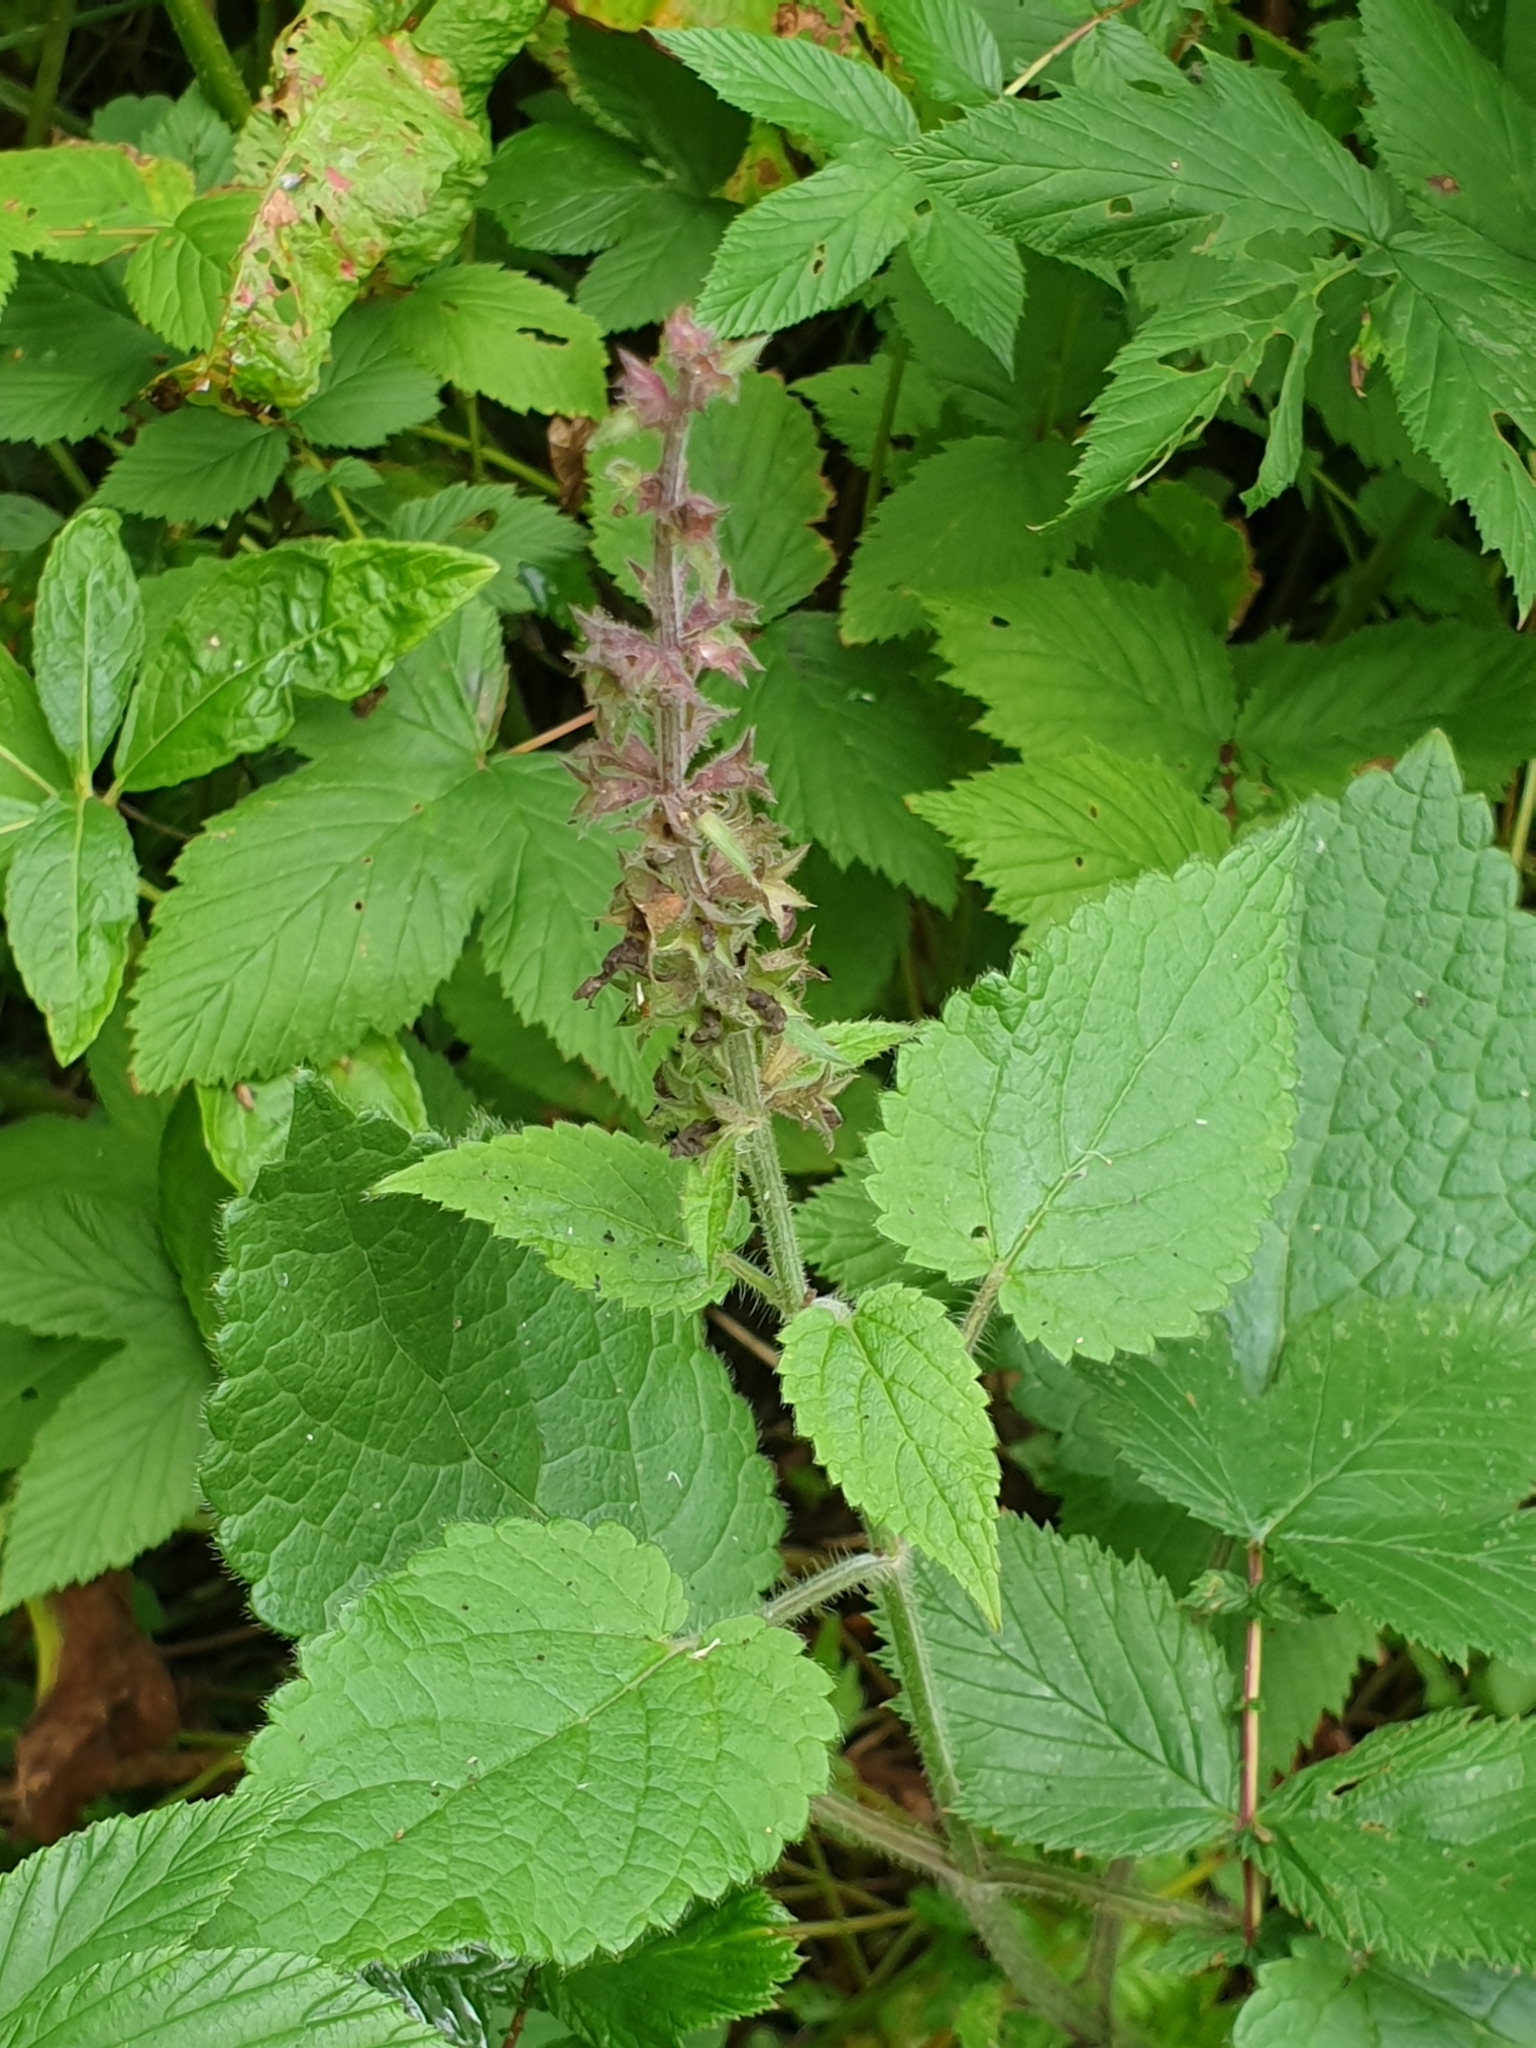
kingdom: Plantae
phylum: Tracheophyta
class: Magnoliopsida
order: Lamiales
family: Lamiaceae
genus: Stachys
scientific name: Stachys sylvatica
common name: Hedge woundwort
